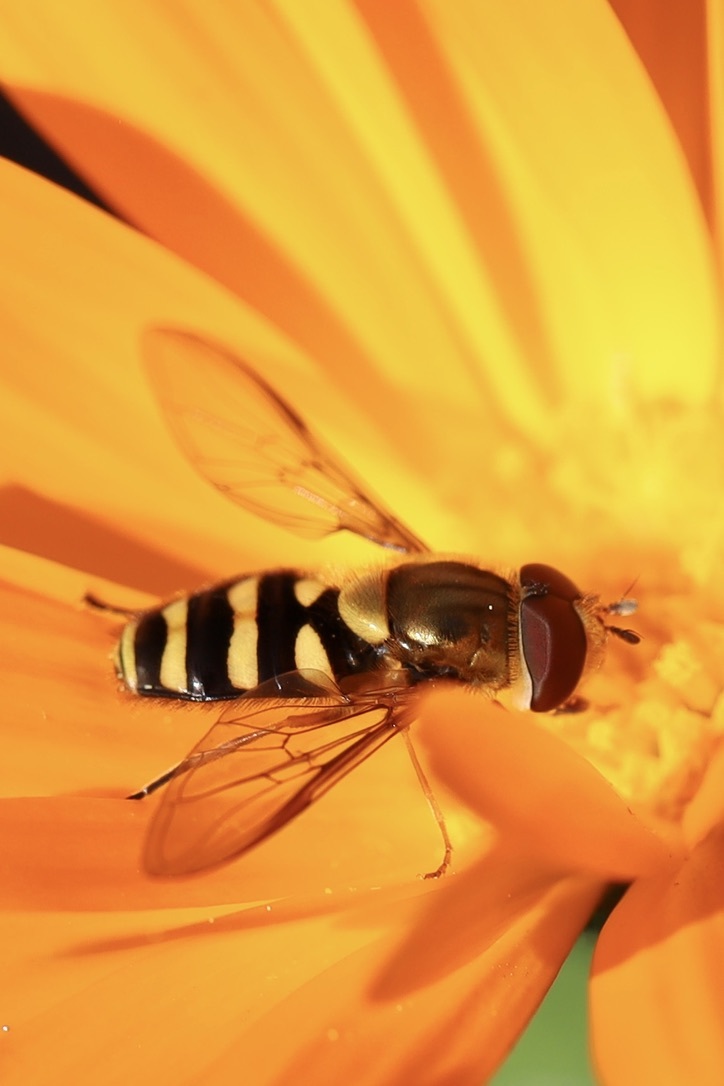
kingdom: Animalia
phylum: Arthropoda
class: Insecta
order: Diptera
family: Syrphidae
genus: Syrphus
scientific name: Syrphus opinator
